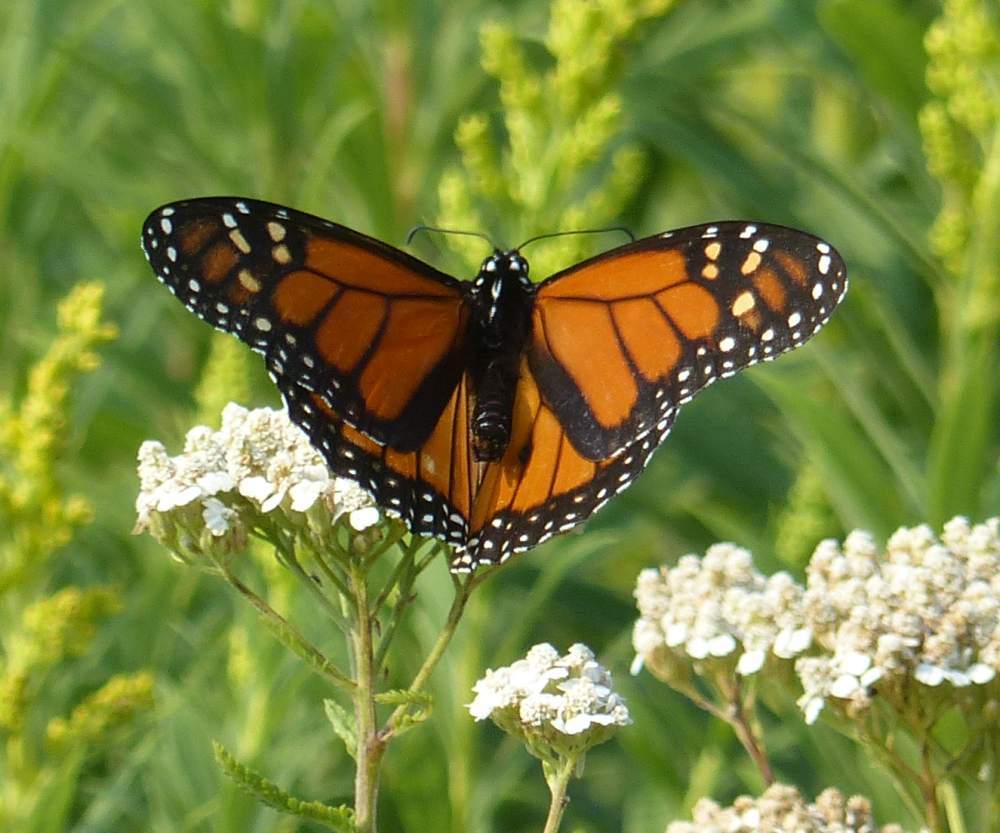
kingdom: Animalia
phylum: Arthropoda
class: Insecta
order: Lepidoptera
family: Nymphalidae
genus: Danaus
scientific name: Danaus plexippus
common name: Monarch
